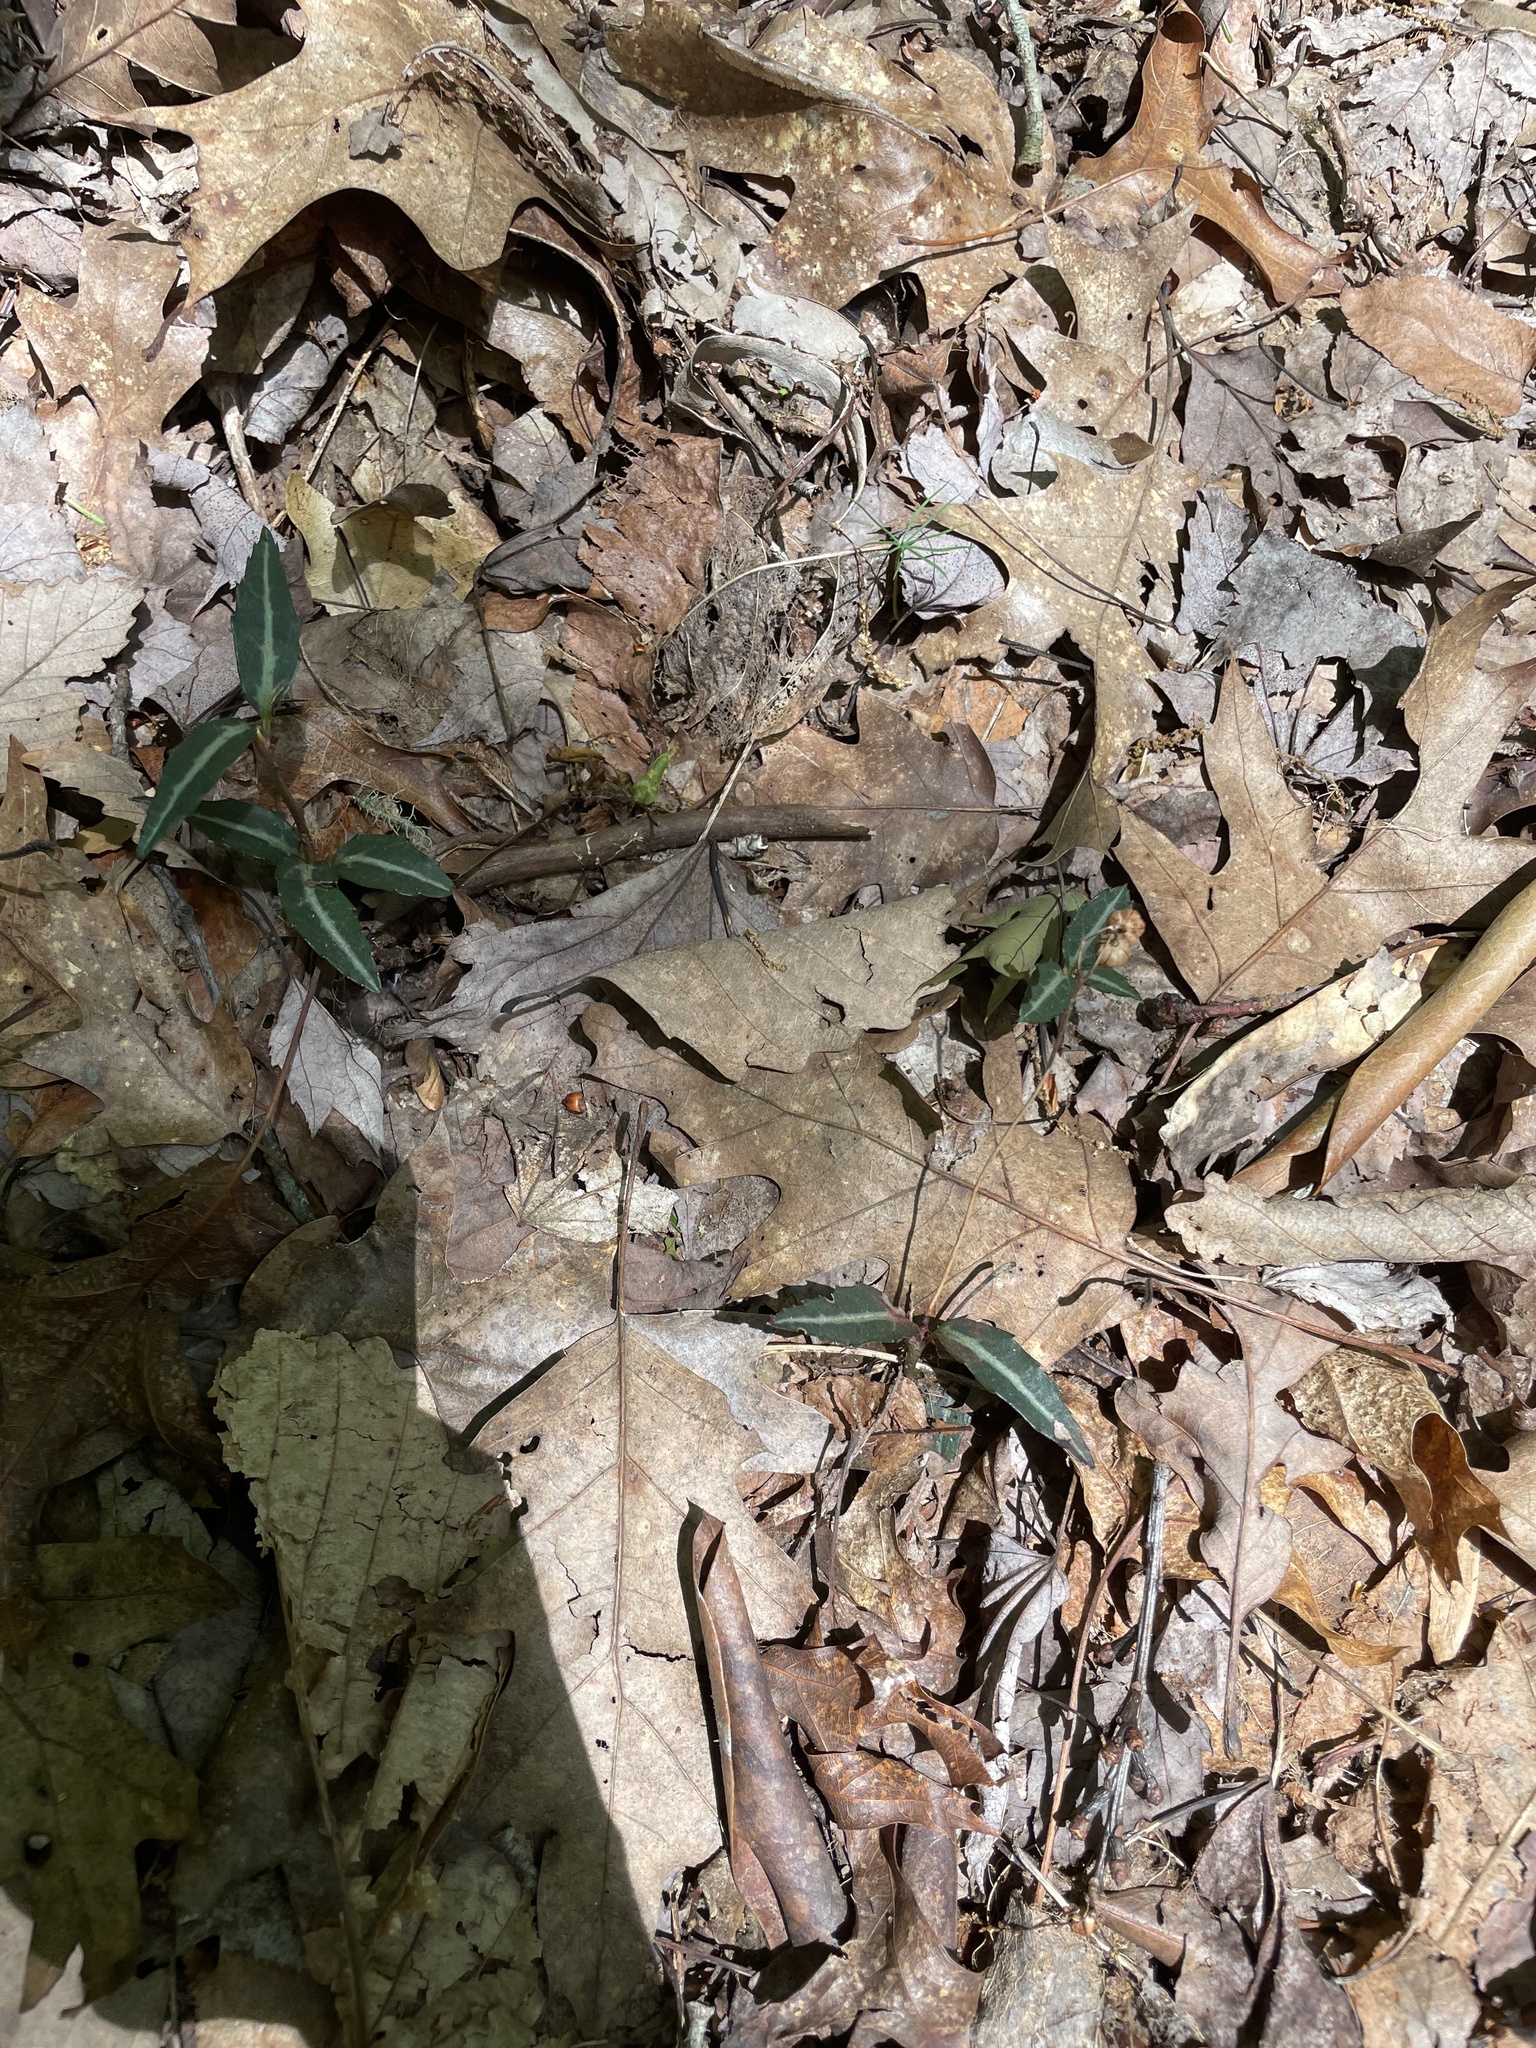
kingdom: Plantae
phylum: Tracheophyta
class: Magnoliopsida
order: Ericales
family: Ericaceae
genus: Chimaphila
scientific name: Chimaphila maculata
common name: Spotted pipsissewa
